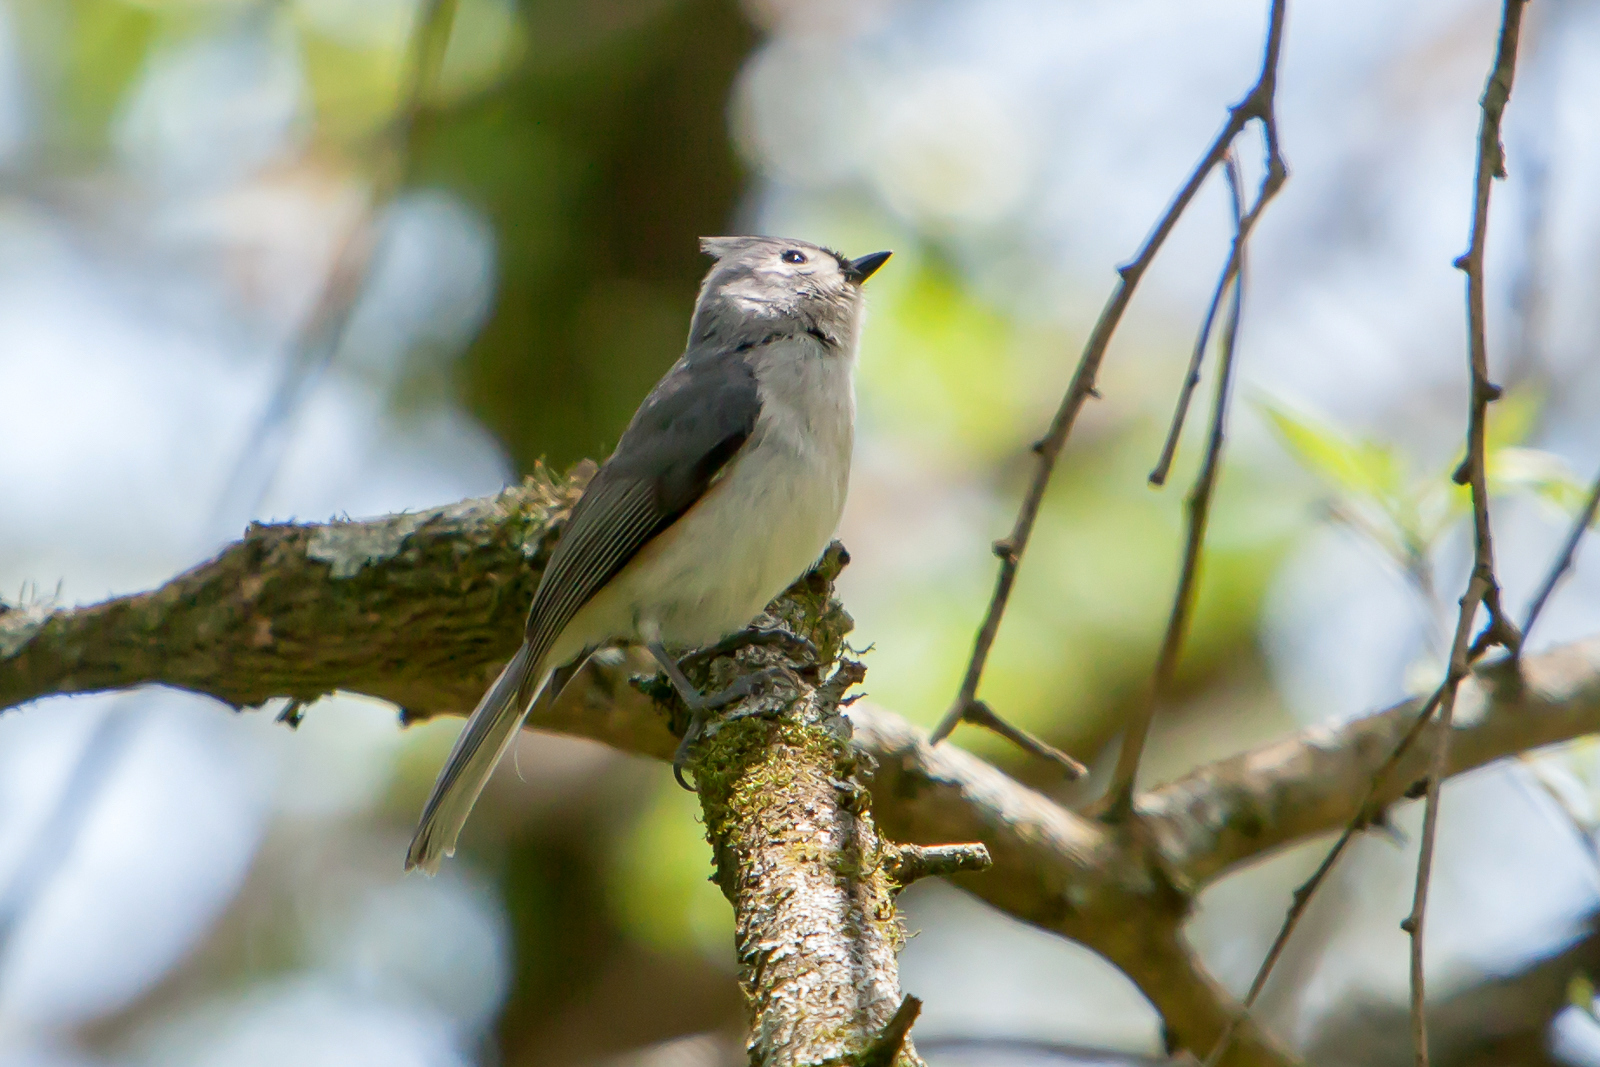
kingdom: Animalia
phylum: Chordata
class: Aves
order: Passeriformes
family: Paridae
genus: Baeolophus
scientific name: Baeolophus bicolor
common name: Tufted titmouse
